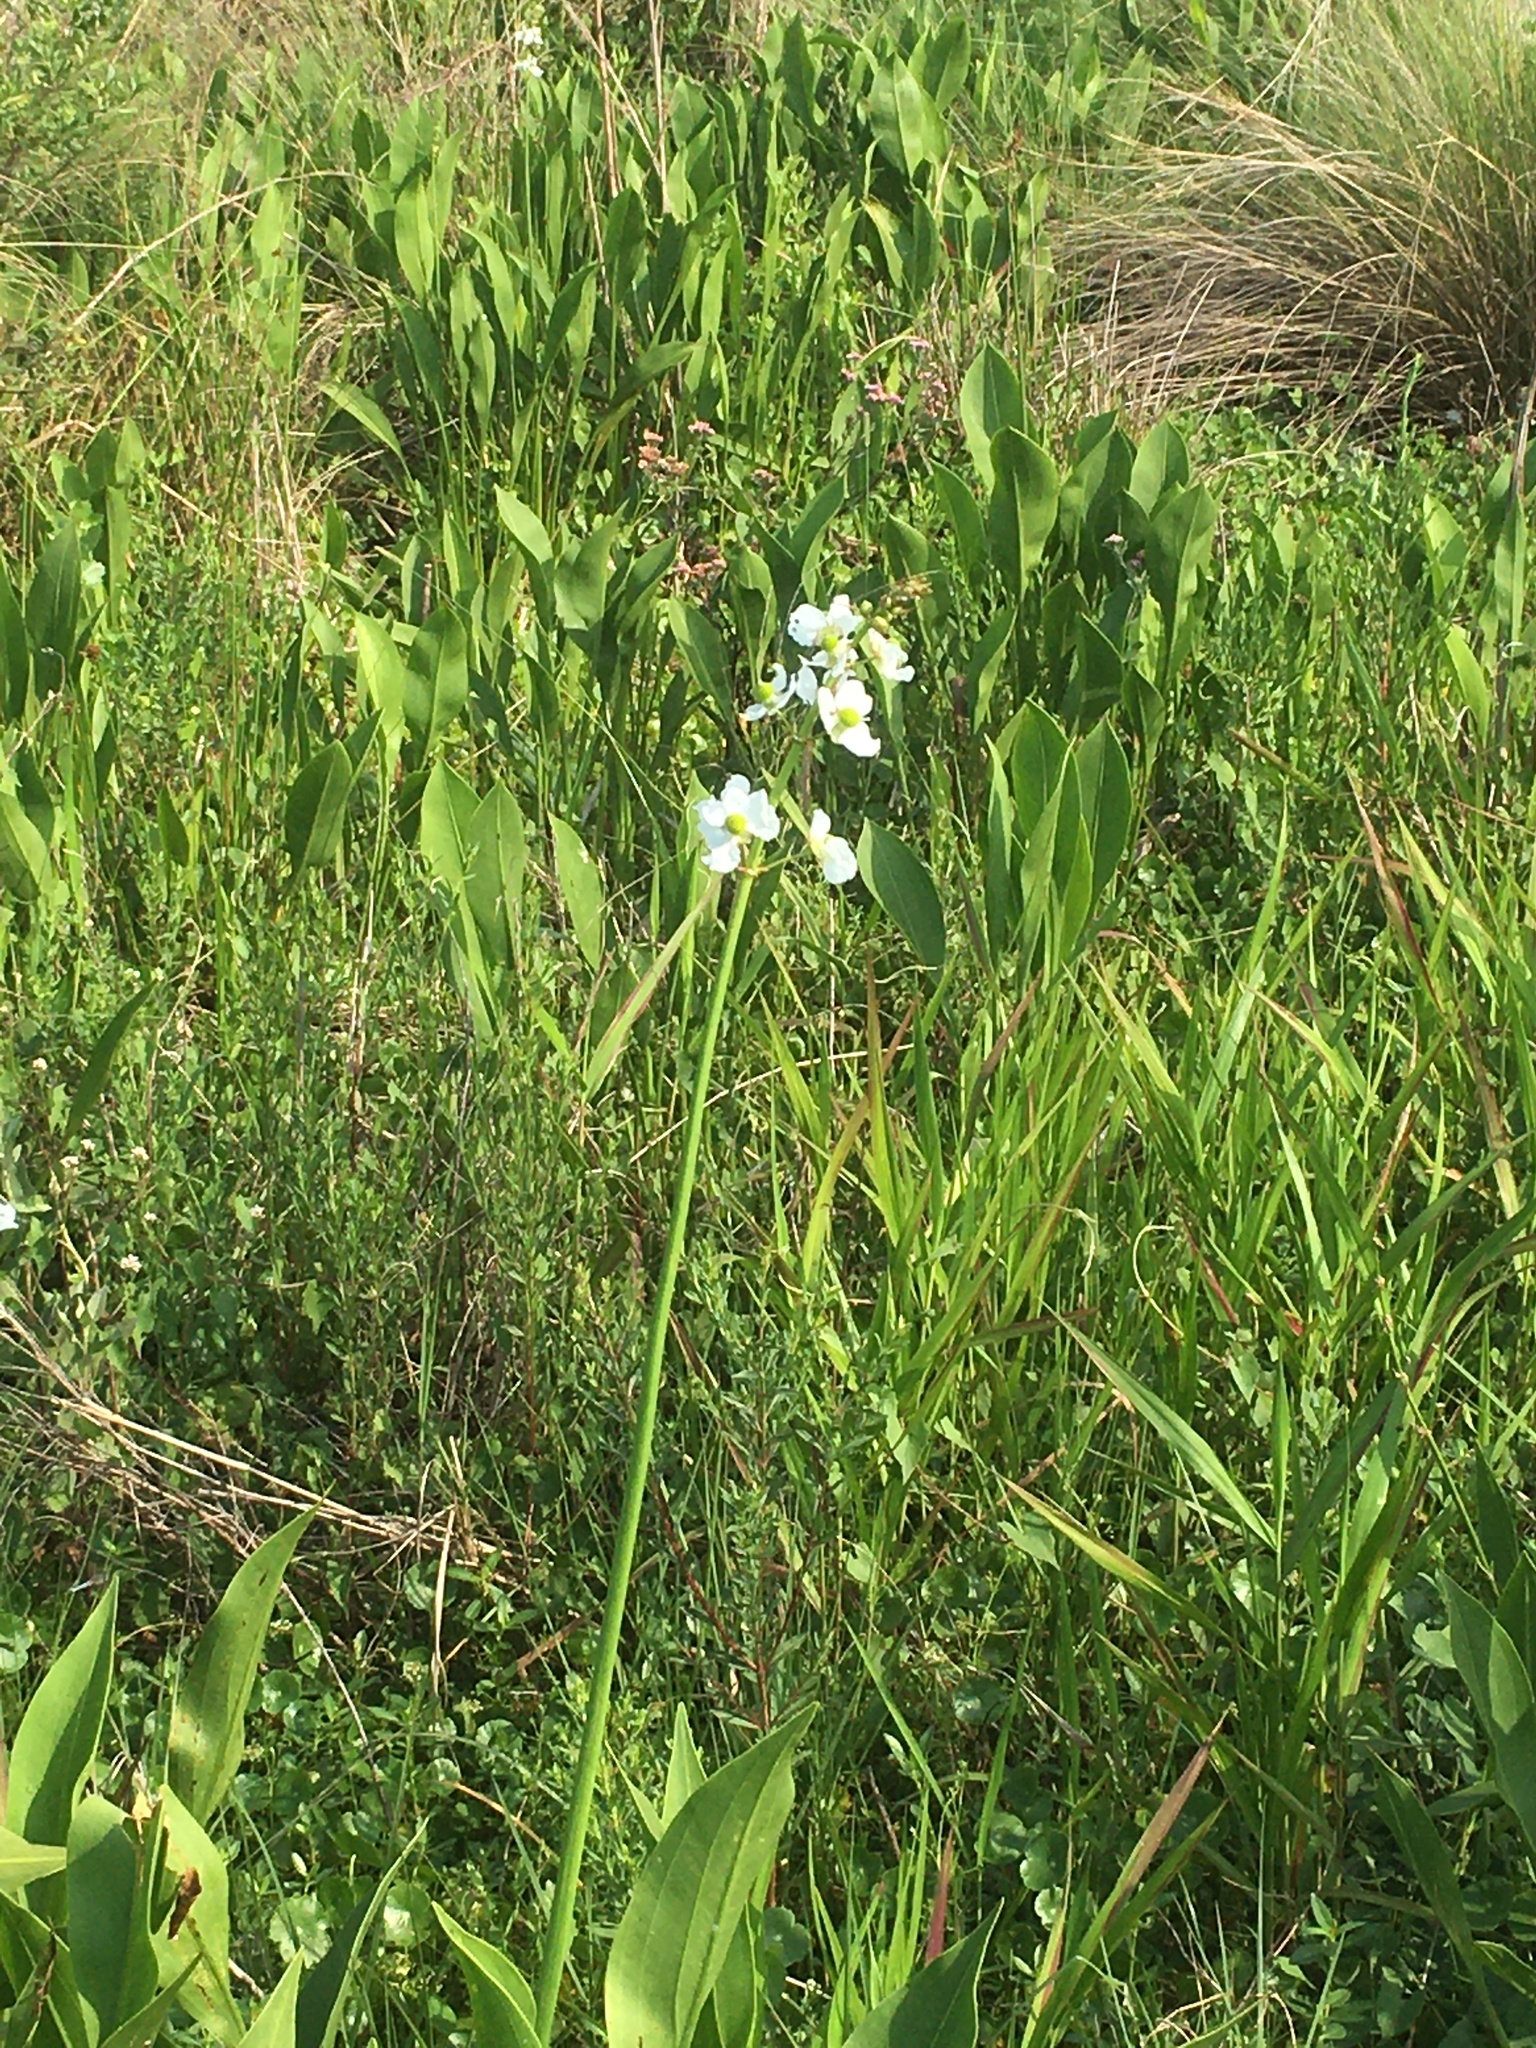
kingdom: Plantae
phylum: Tracheophyta
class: Liliopsida
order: Alismatales
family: Alismataceae
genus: Sagittaria
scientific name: Sagittaria lancifolia
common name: Lance-leaf arrowhead
